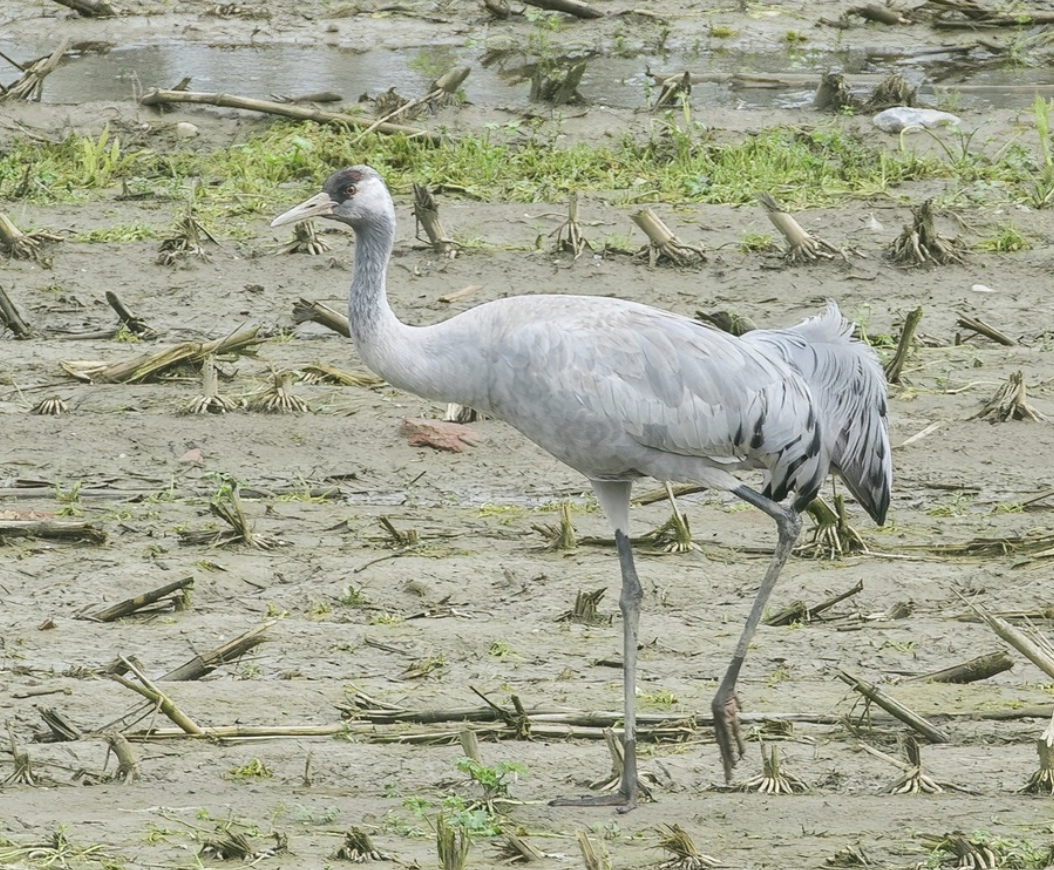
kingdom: Animalia
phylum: Chordata
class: Aves
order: Gruiformes
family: Gruidae
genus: Grus
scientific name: Grus grus
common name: Common crane
